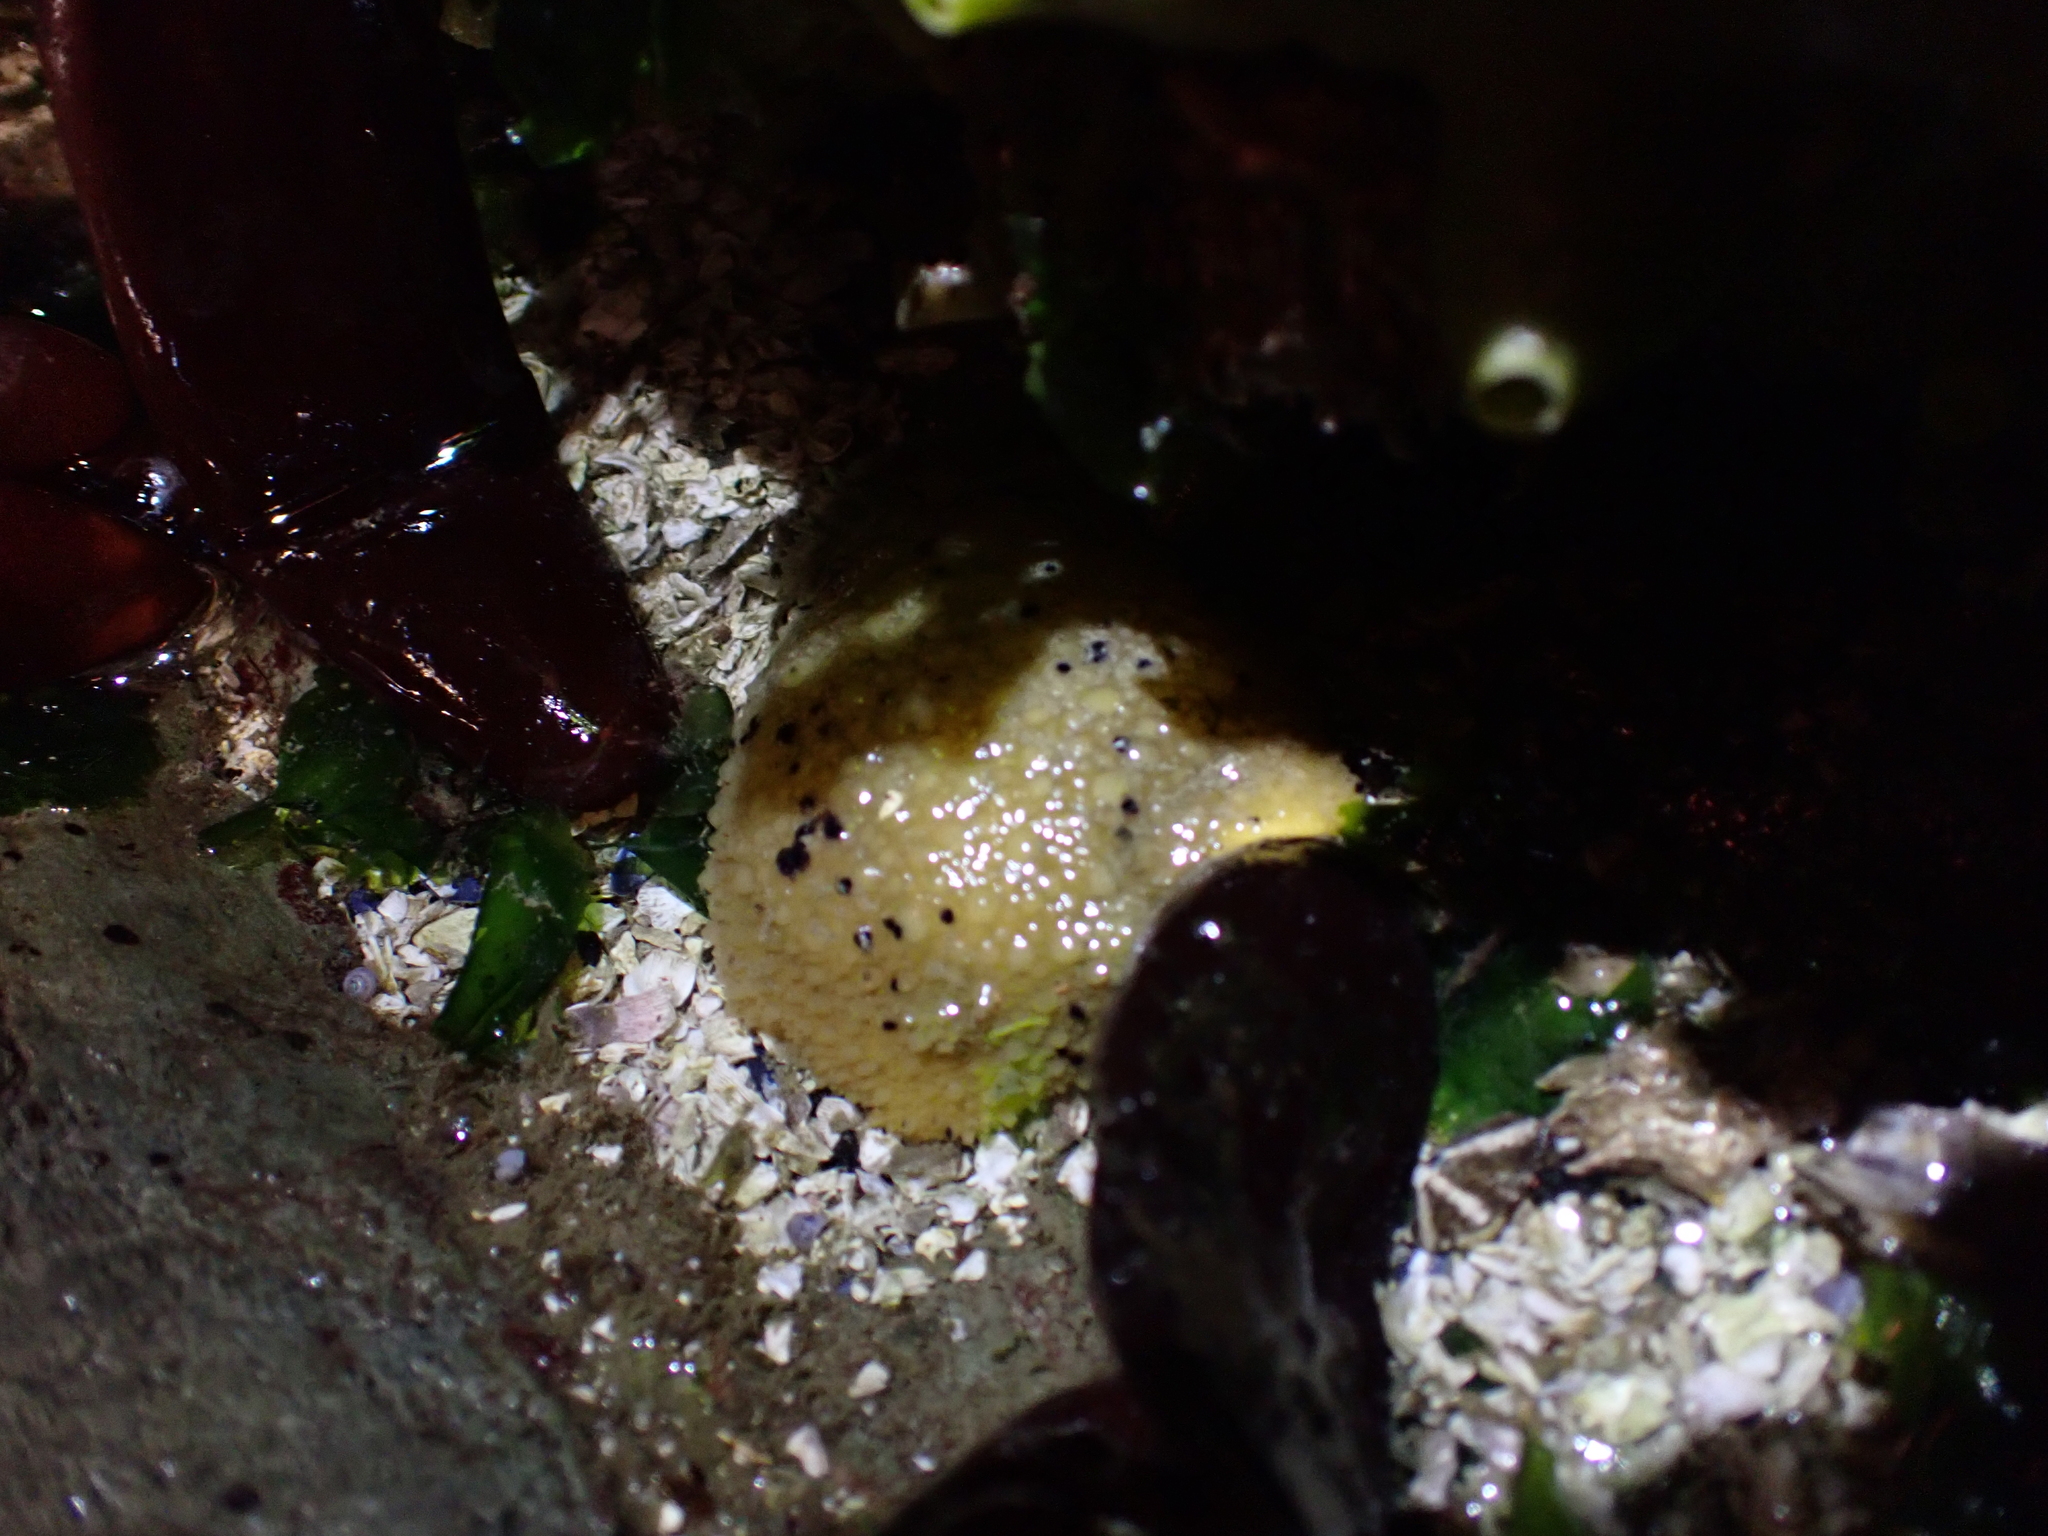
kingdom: Animalia
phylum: Mollusca
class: Gastropoda
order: Nudibranchia
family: Dorididae
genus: Doris
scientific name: Doris montereyensis
